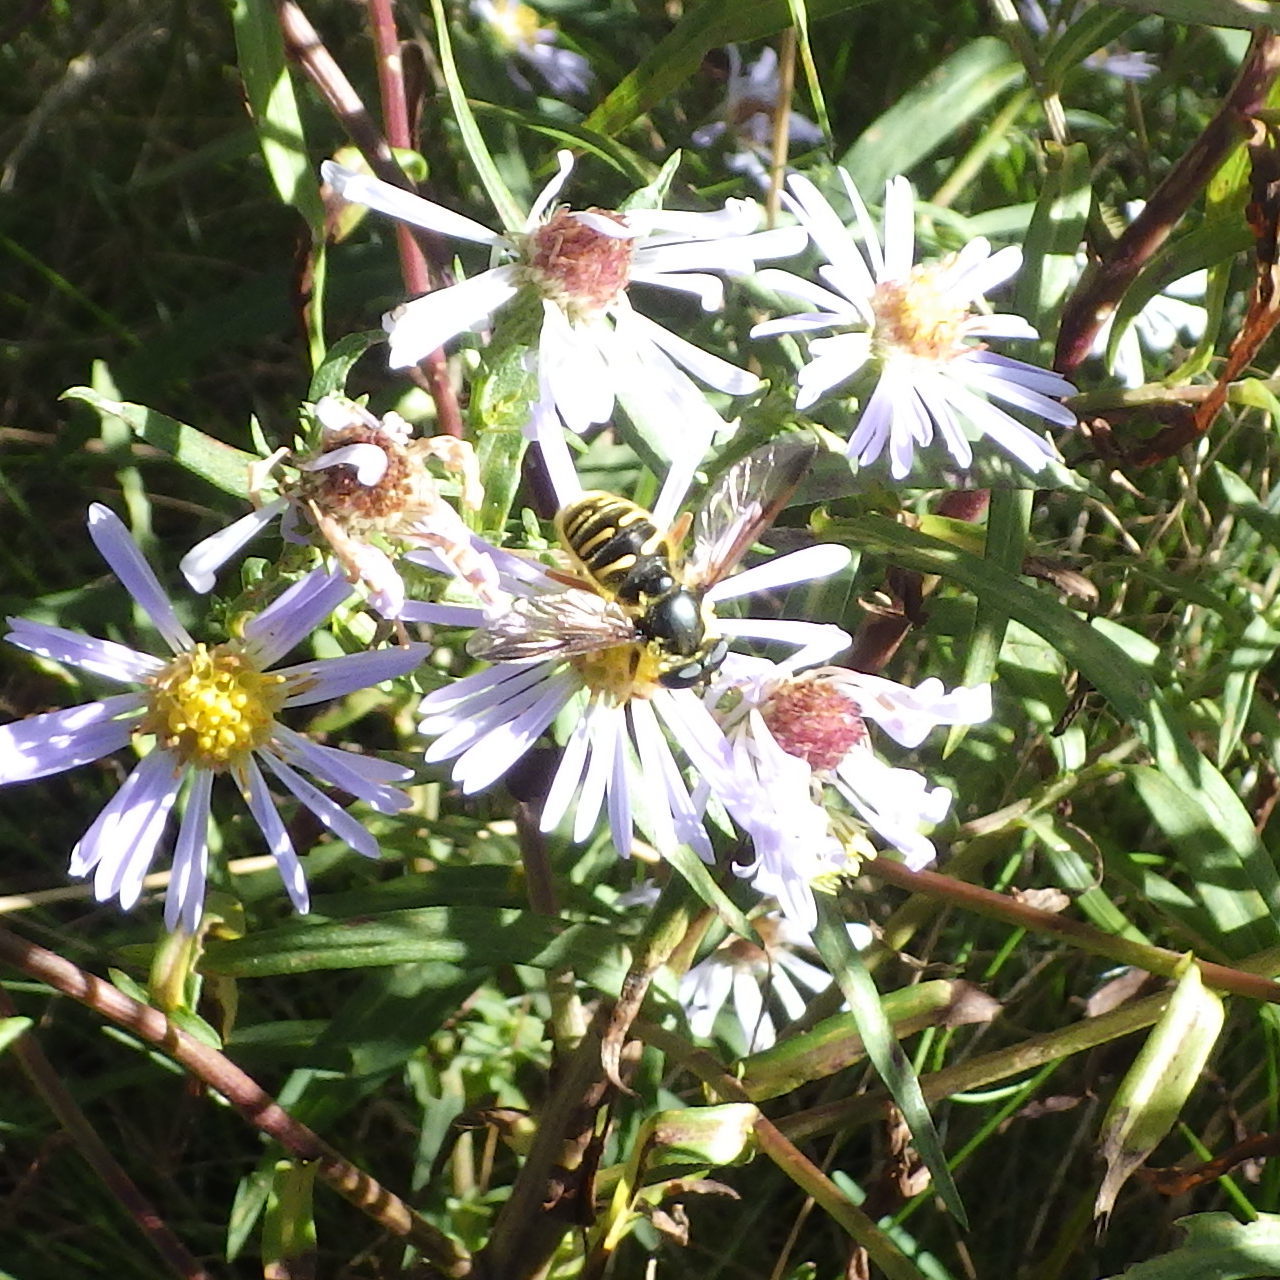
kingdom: Animalia
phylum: Arthropoda
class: Insecta
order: Diptera
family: Syrphidae
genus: Sericomyia
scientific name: Sericomyia chrysotoxoides
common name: Oblique-banded pond fly
